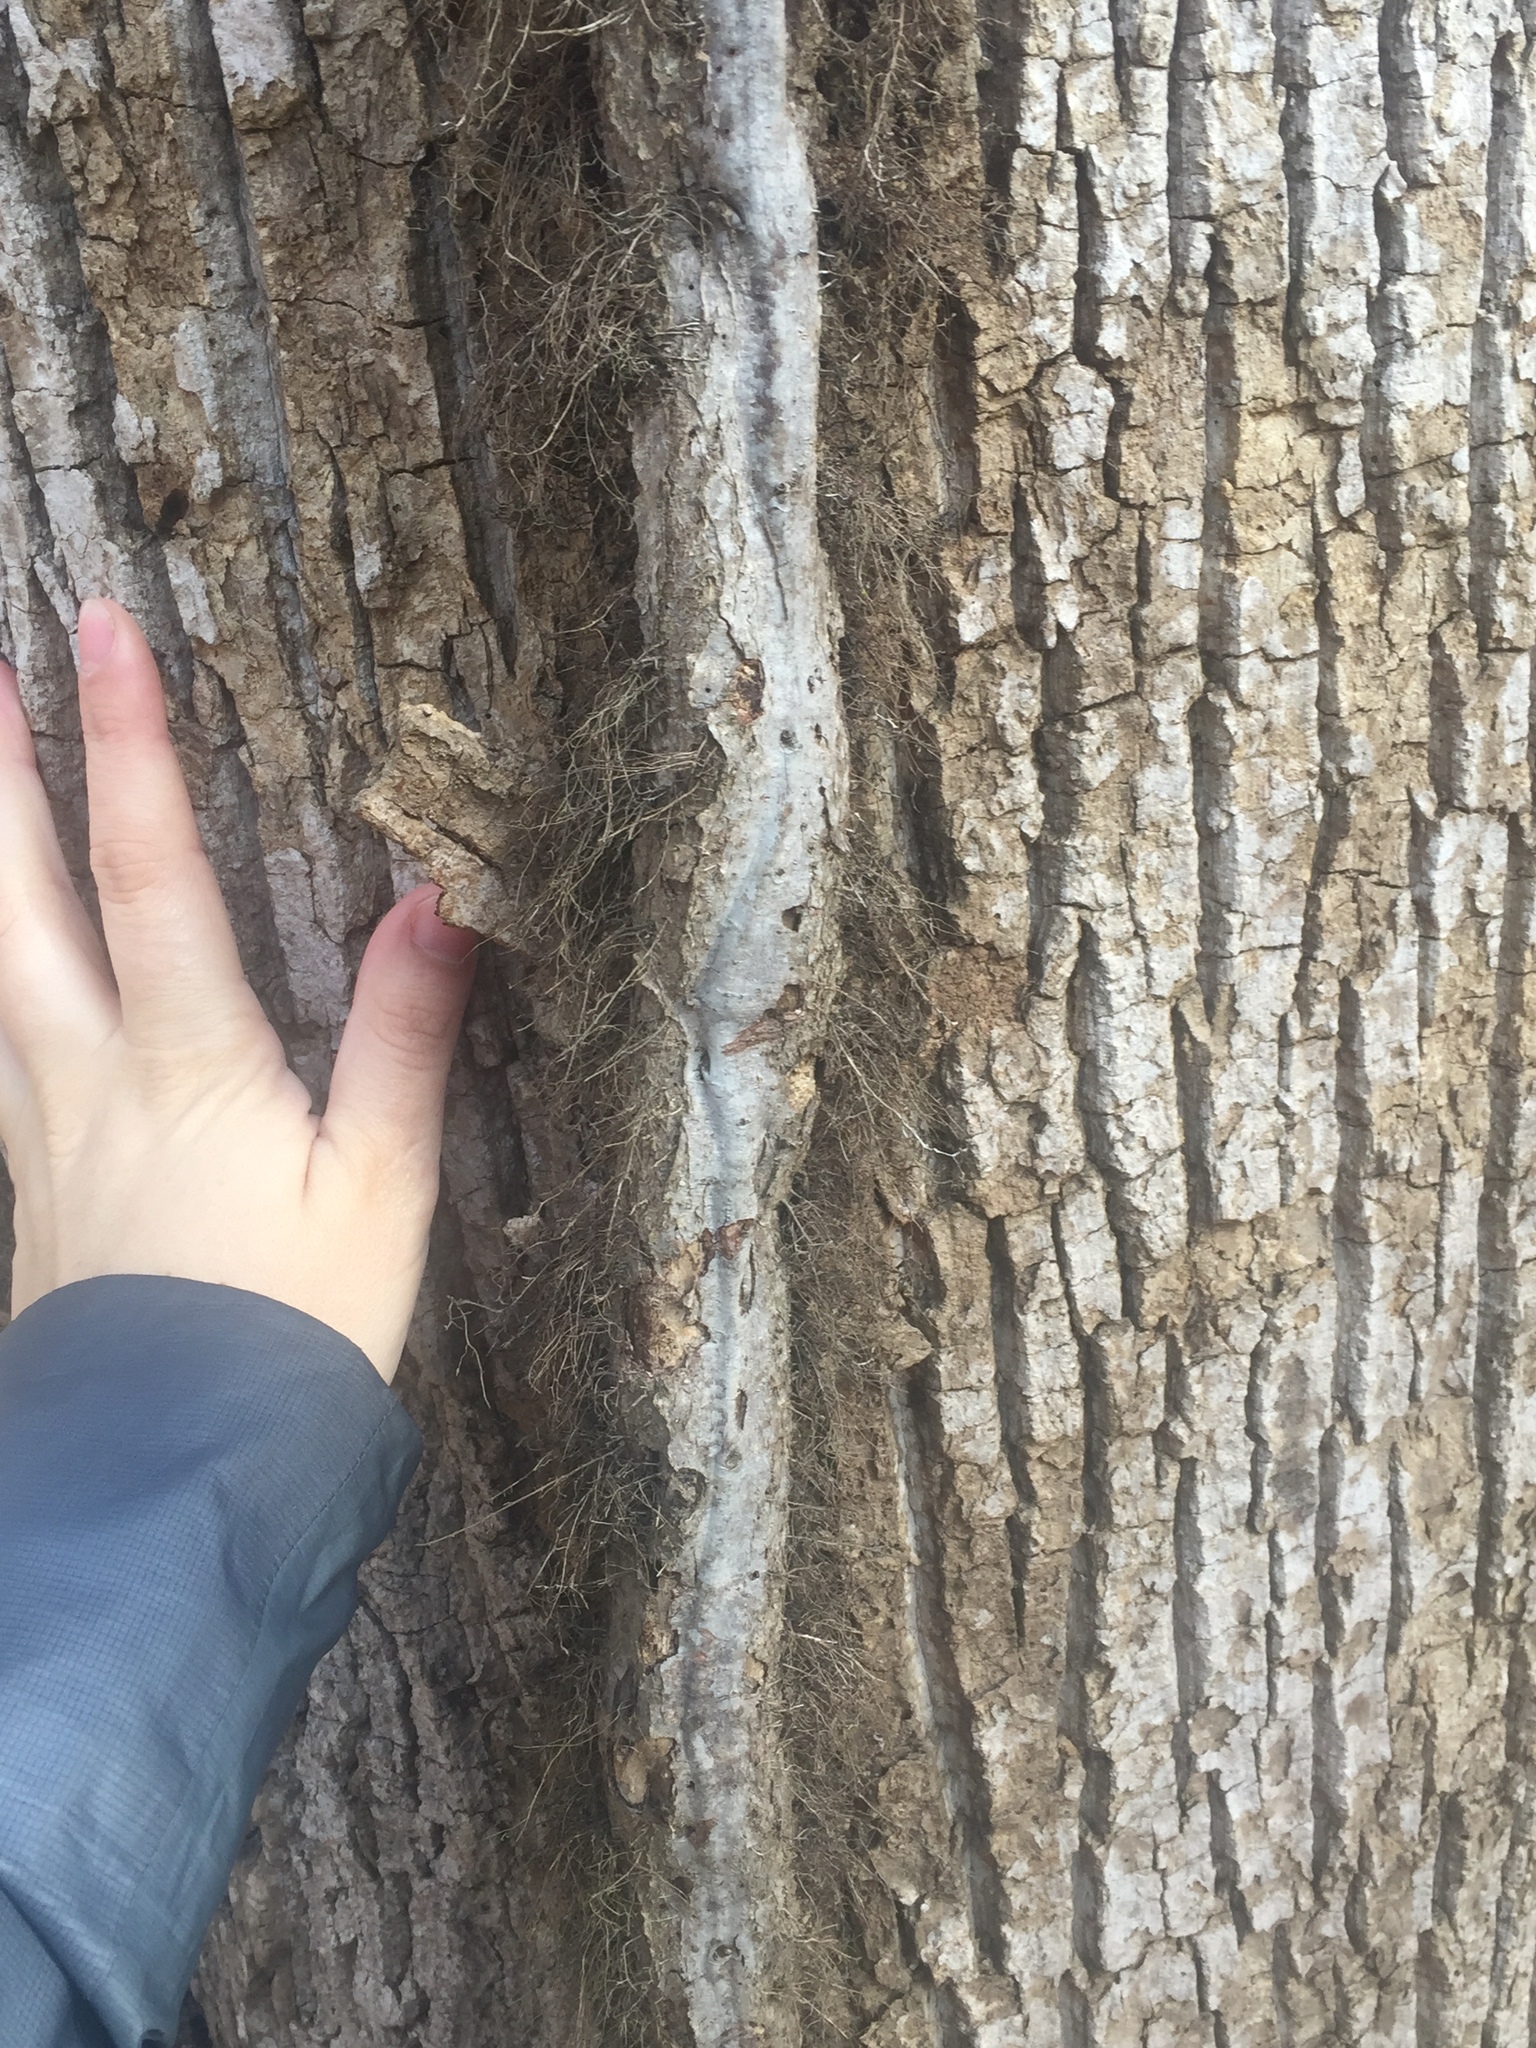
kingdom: Plantae
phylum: Tracheophyta
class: Magnoliopsida
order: Magnoliales
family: Magnoliaceae
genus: Liriodendron
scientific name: Liriodendron tulipifera
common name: Tulip tree
